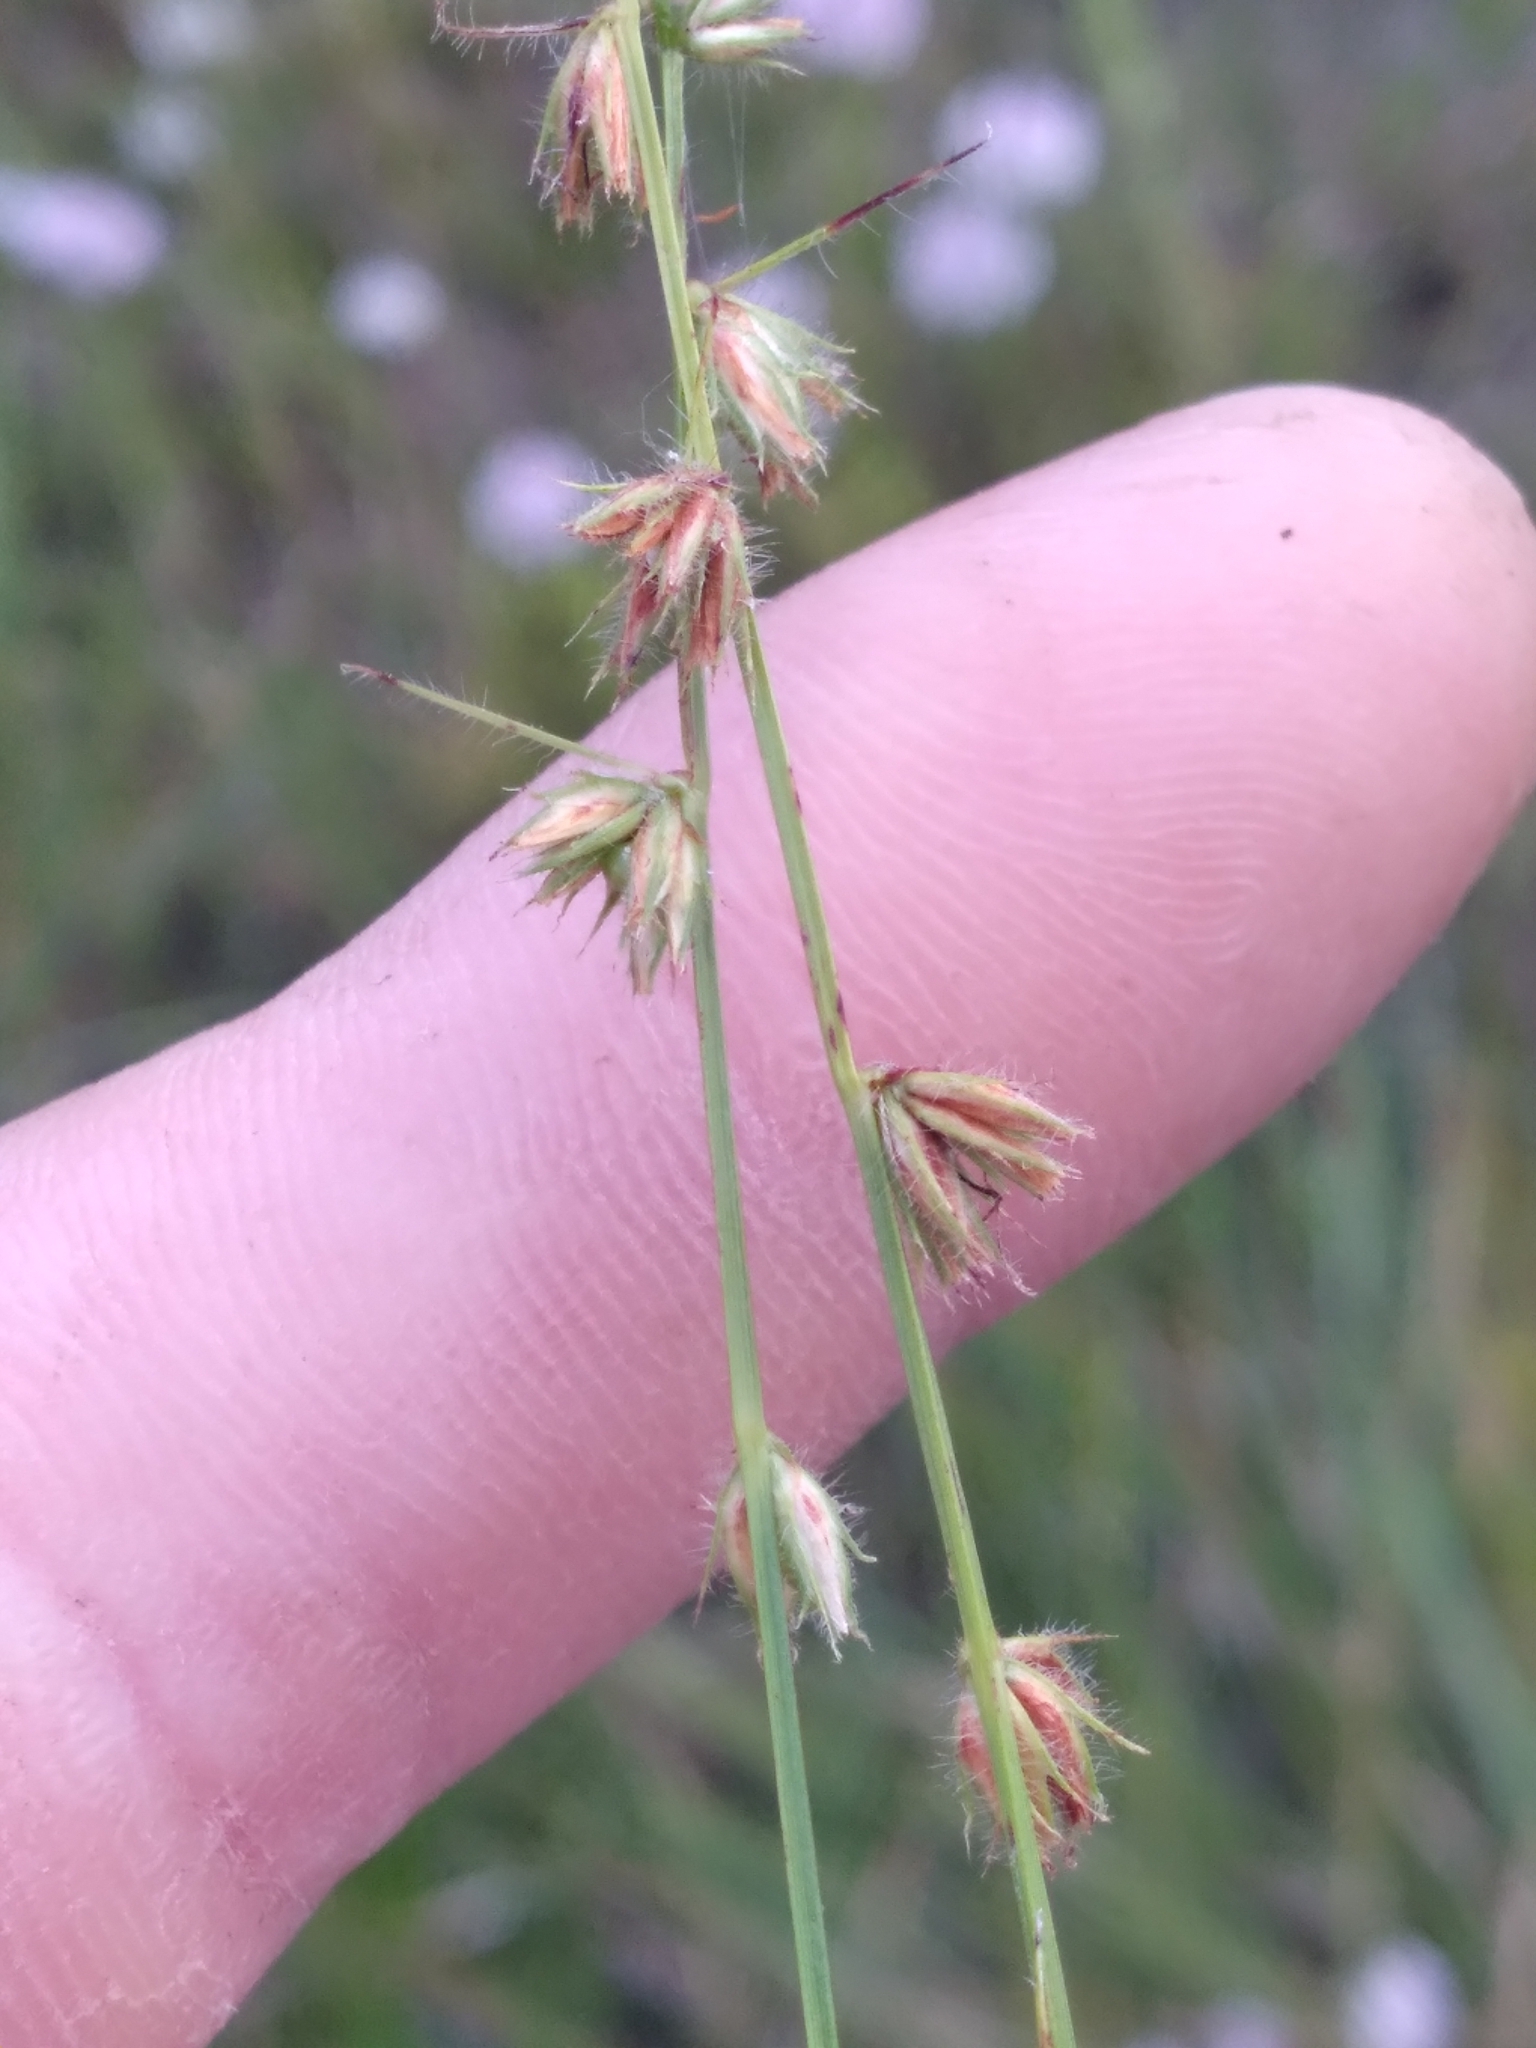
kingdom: Plantae
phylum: Tracheophyta
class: Liliopsida
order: Poales
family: Cyperaceae
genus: Scleria
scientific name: Scleria distans
